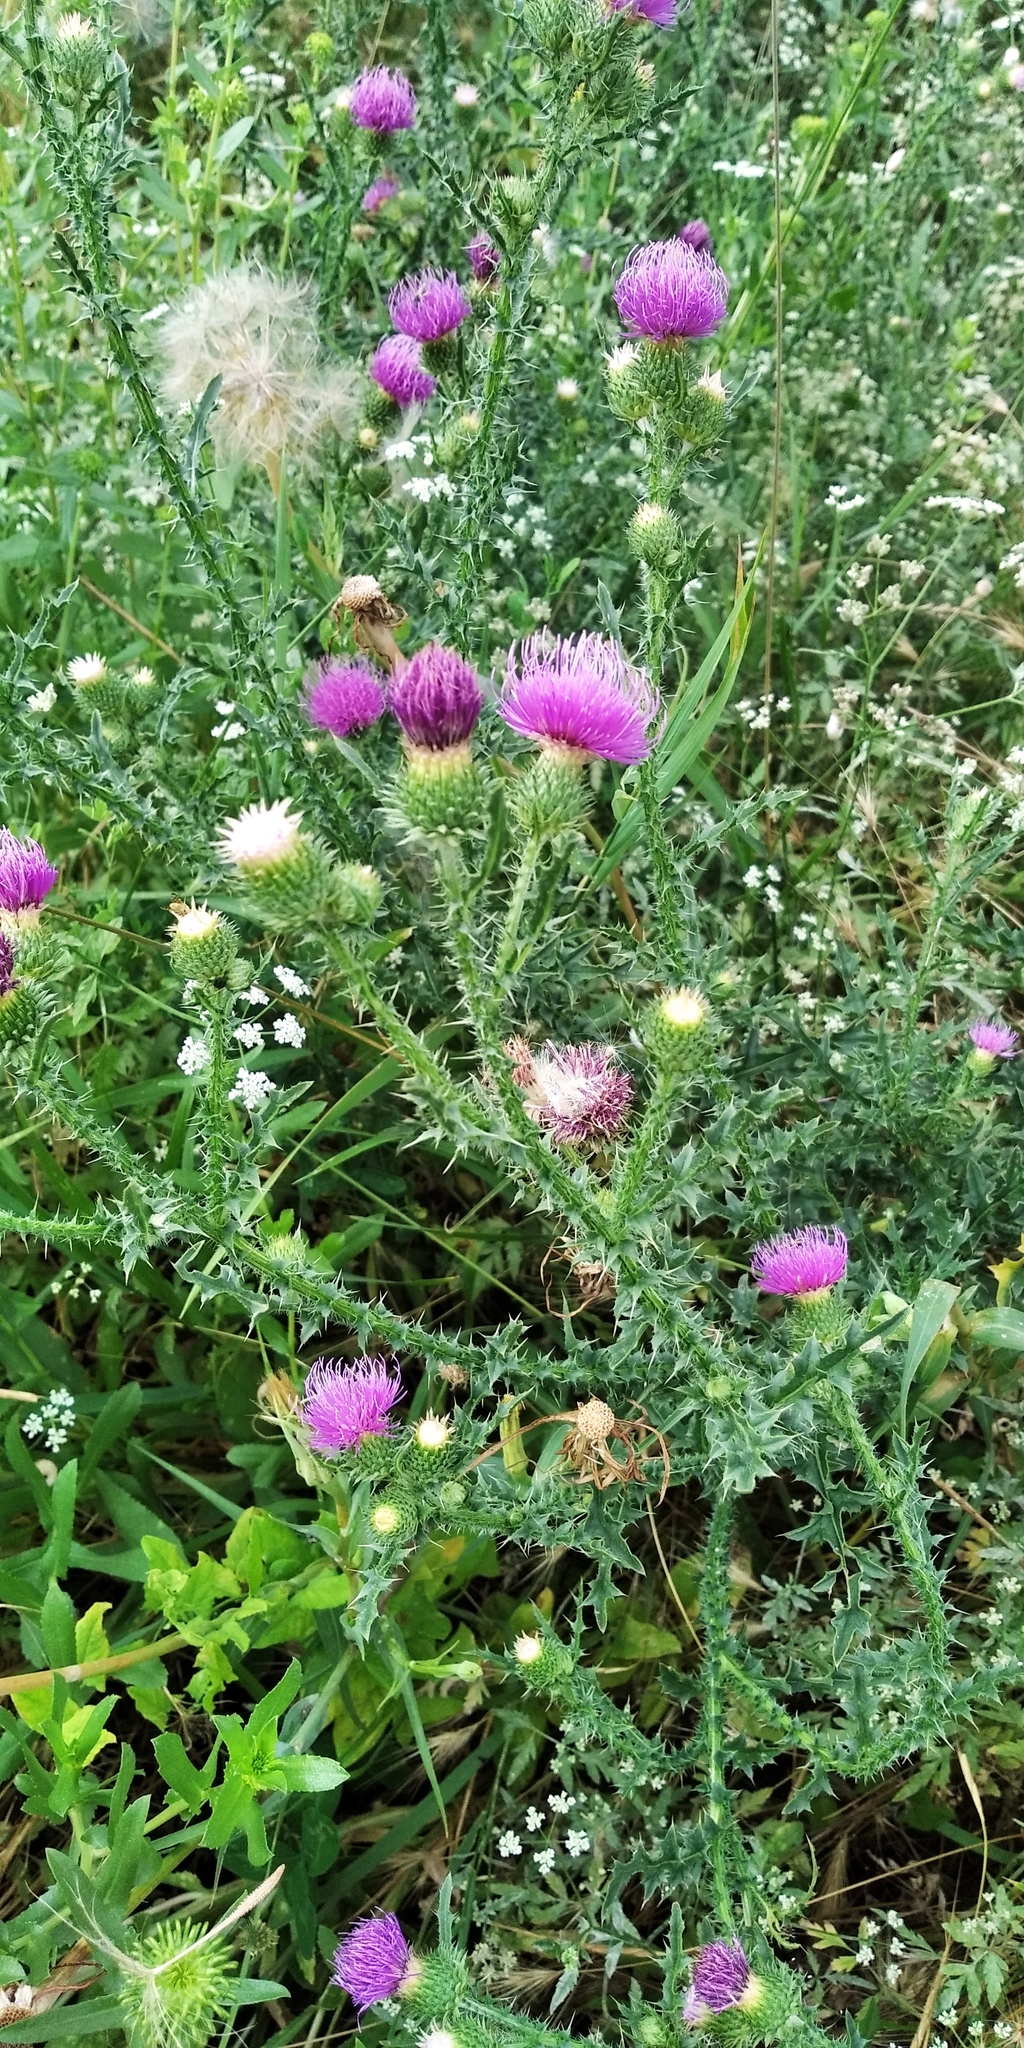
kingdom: Plantae
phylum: Tracheophyta
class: Magnoliopsida
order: Asterales
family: Asteraceae
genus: Carduus
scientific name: Carduus acanthoides
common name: Plumeless thistle
